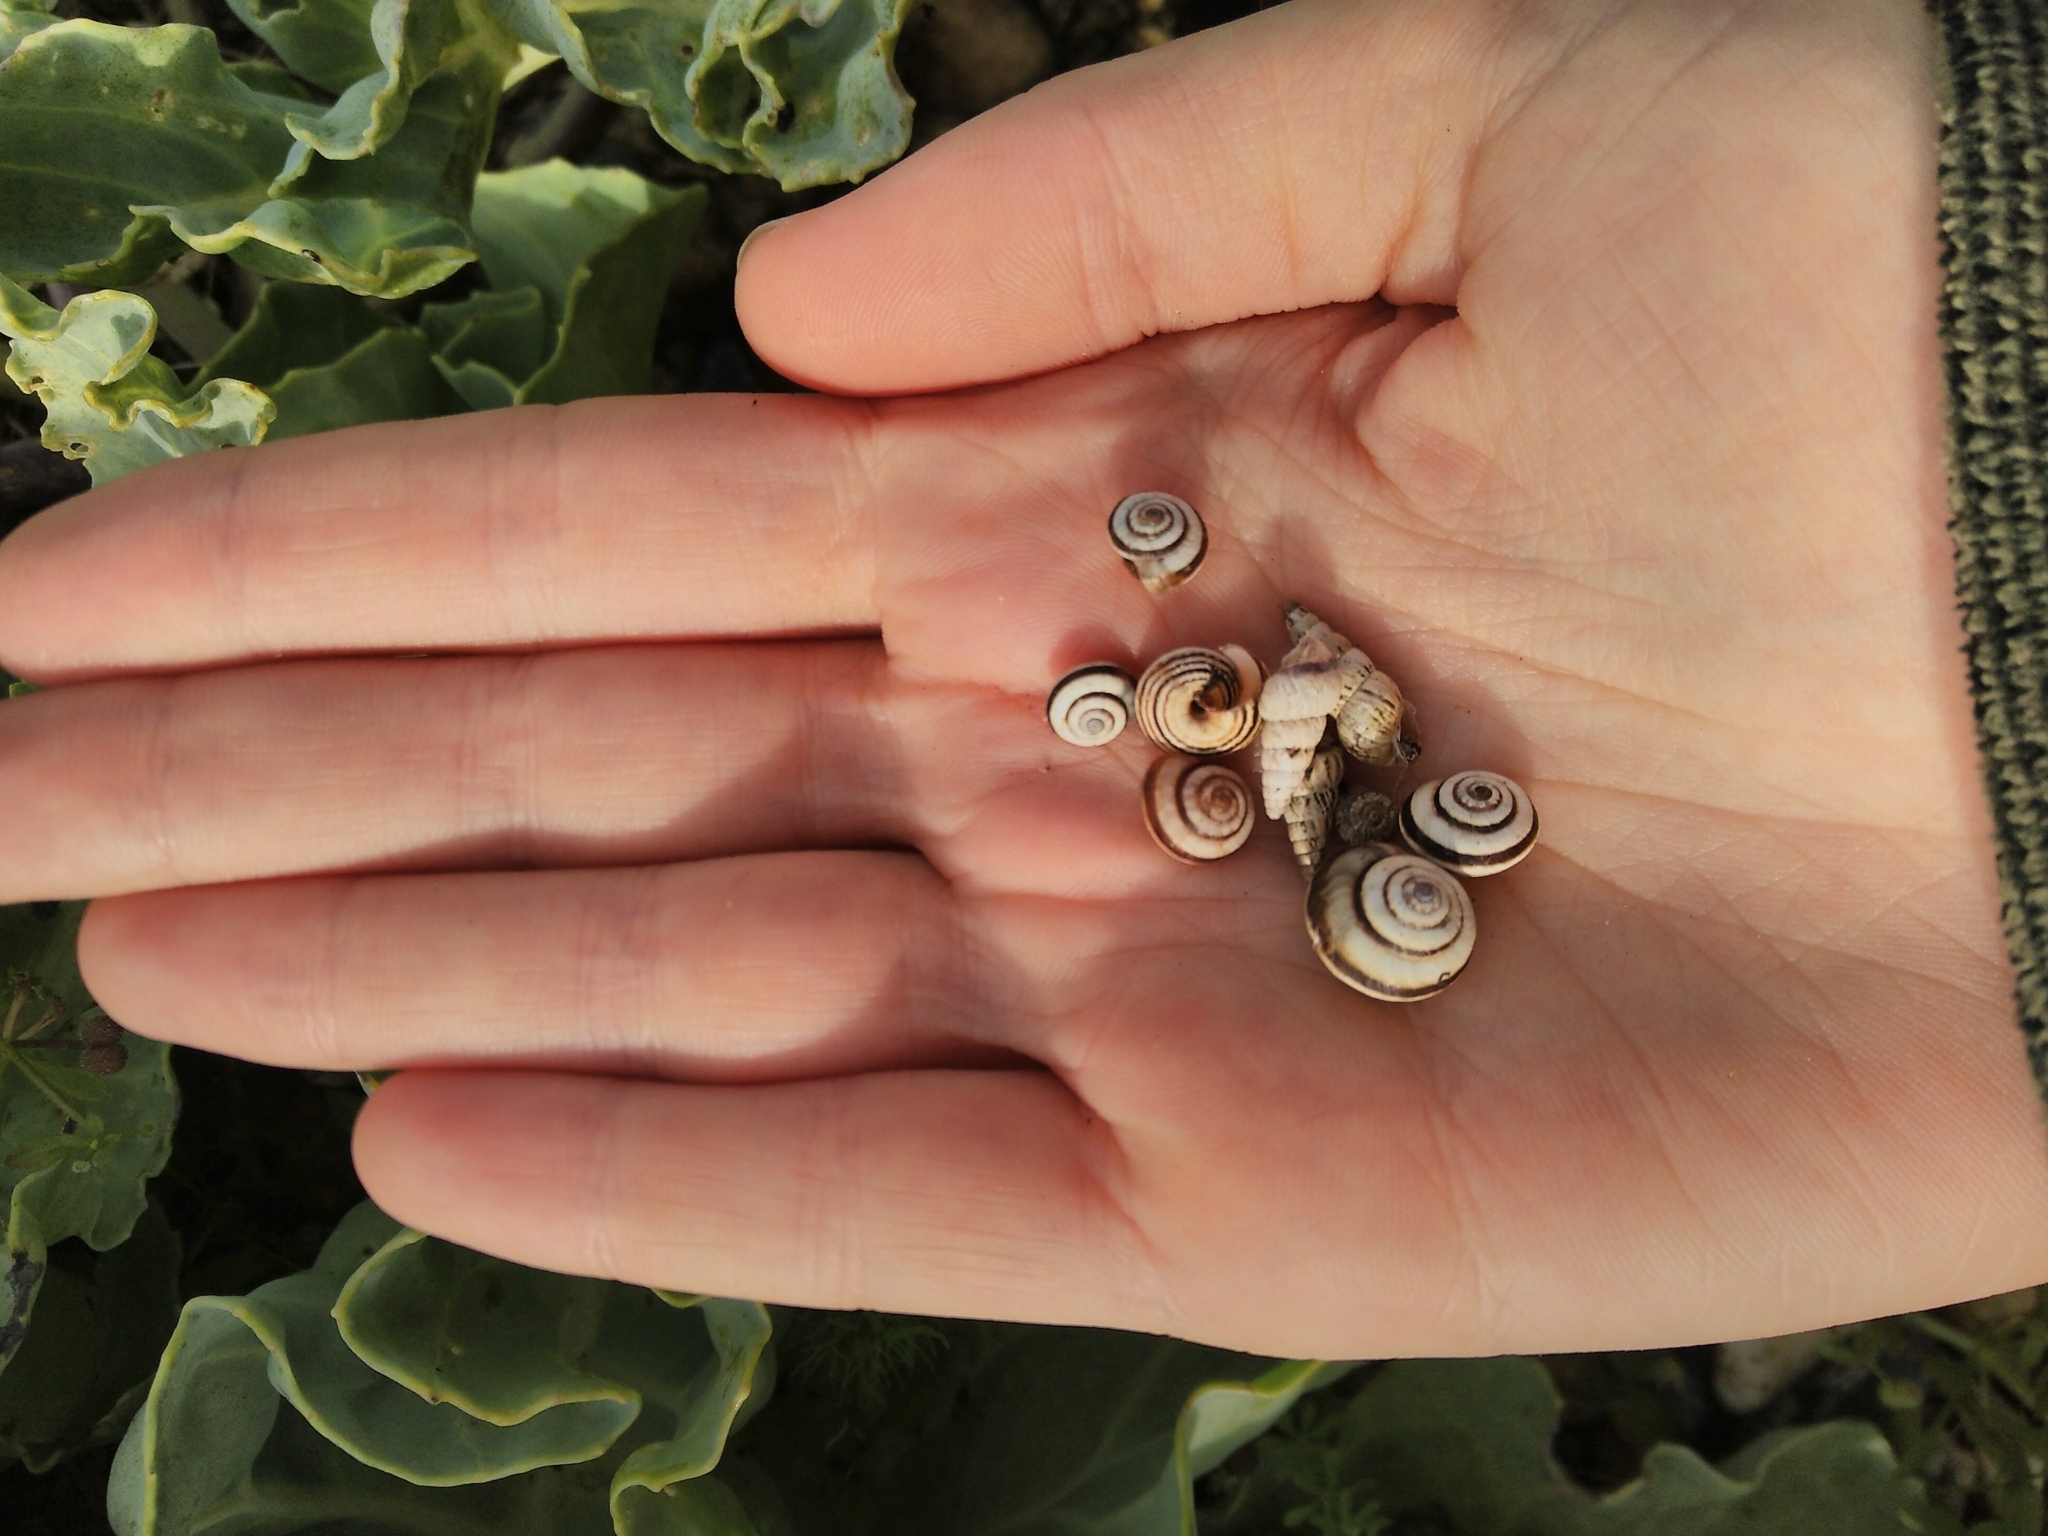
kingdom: Animalia
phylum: Mollusca
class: Gastropoda
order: Stylommatophora
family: Geomitridae
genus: Cochlicella
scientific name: Cochlicella acuta
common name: Pointed snail
